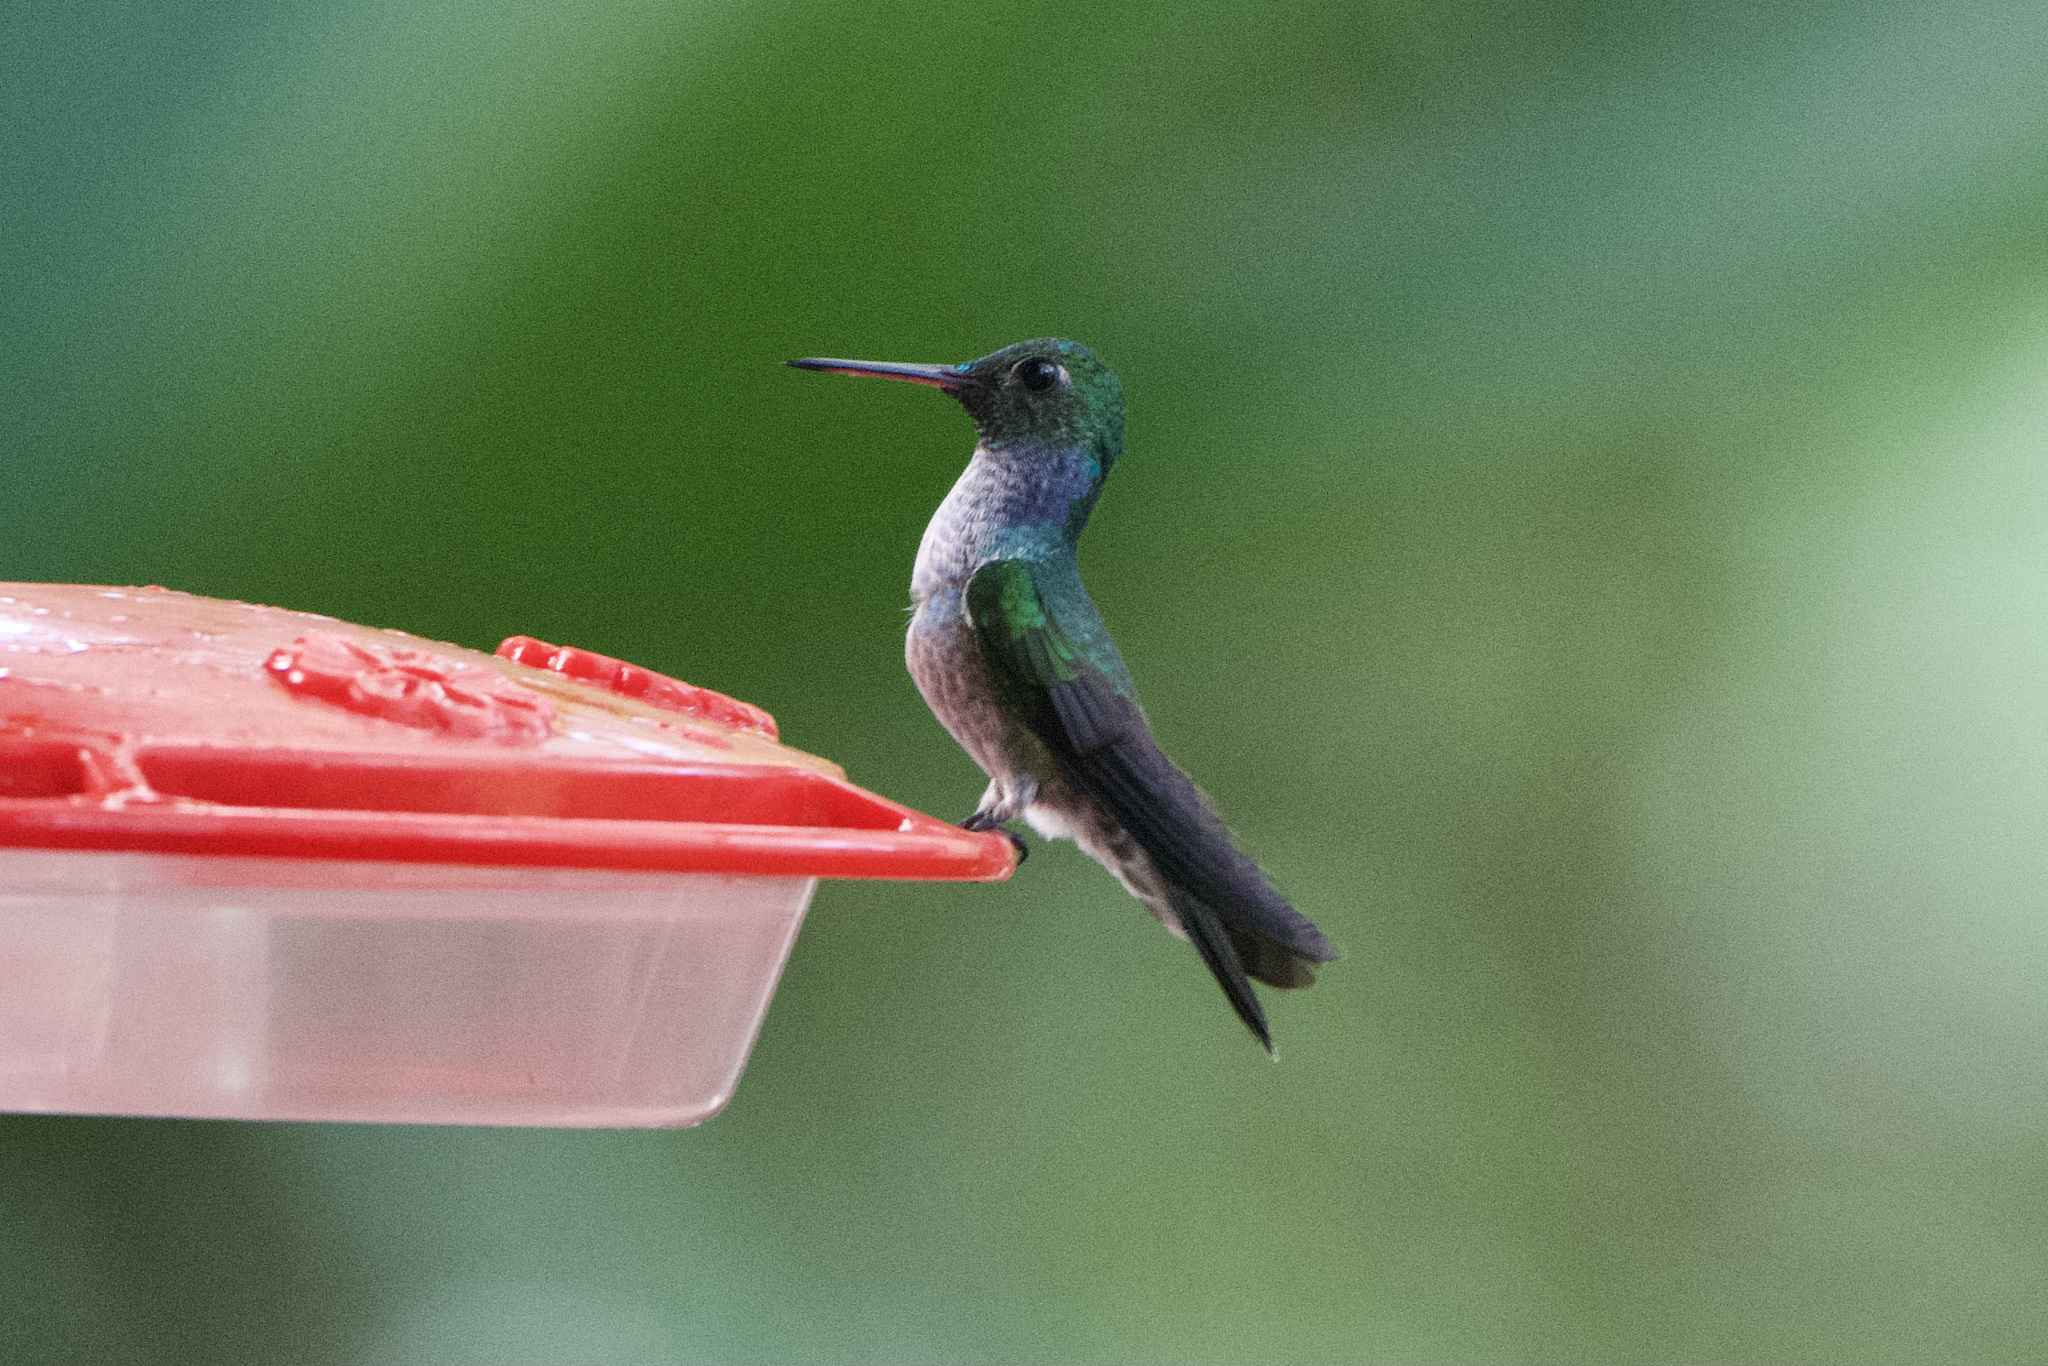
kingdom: Animalia
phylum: Chordata
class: Aves
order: Apodiformes
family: Trochilidae
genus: Polyerata
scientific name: Polyerata amabilis
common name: Blue-chested hummingbird
